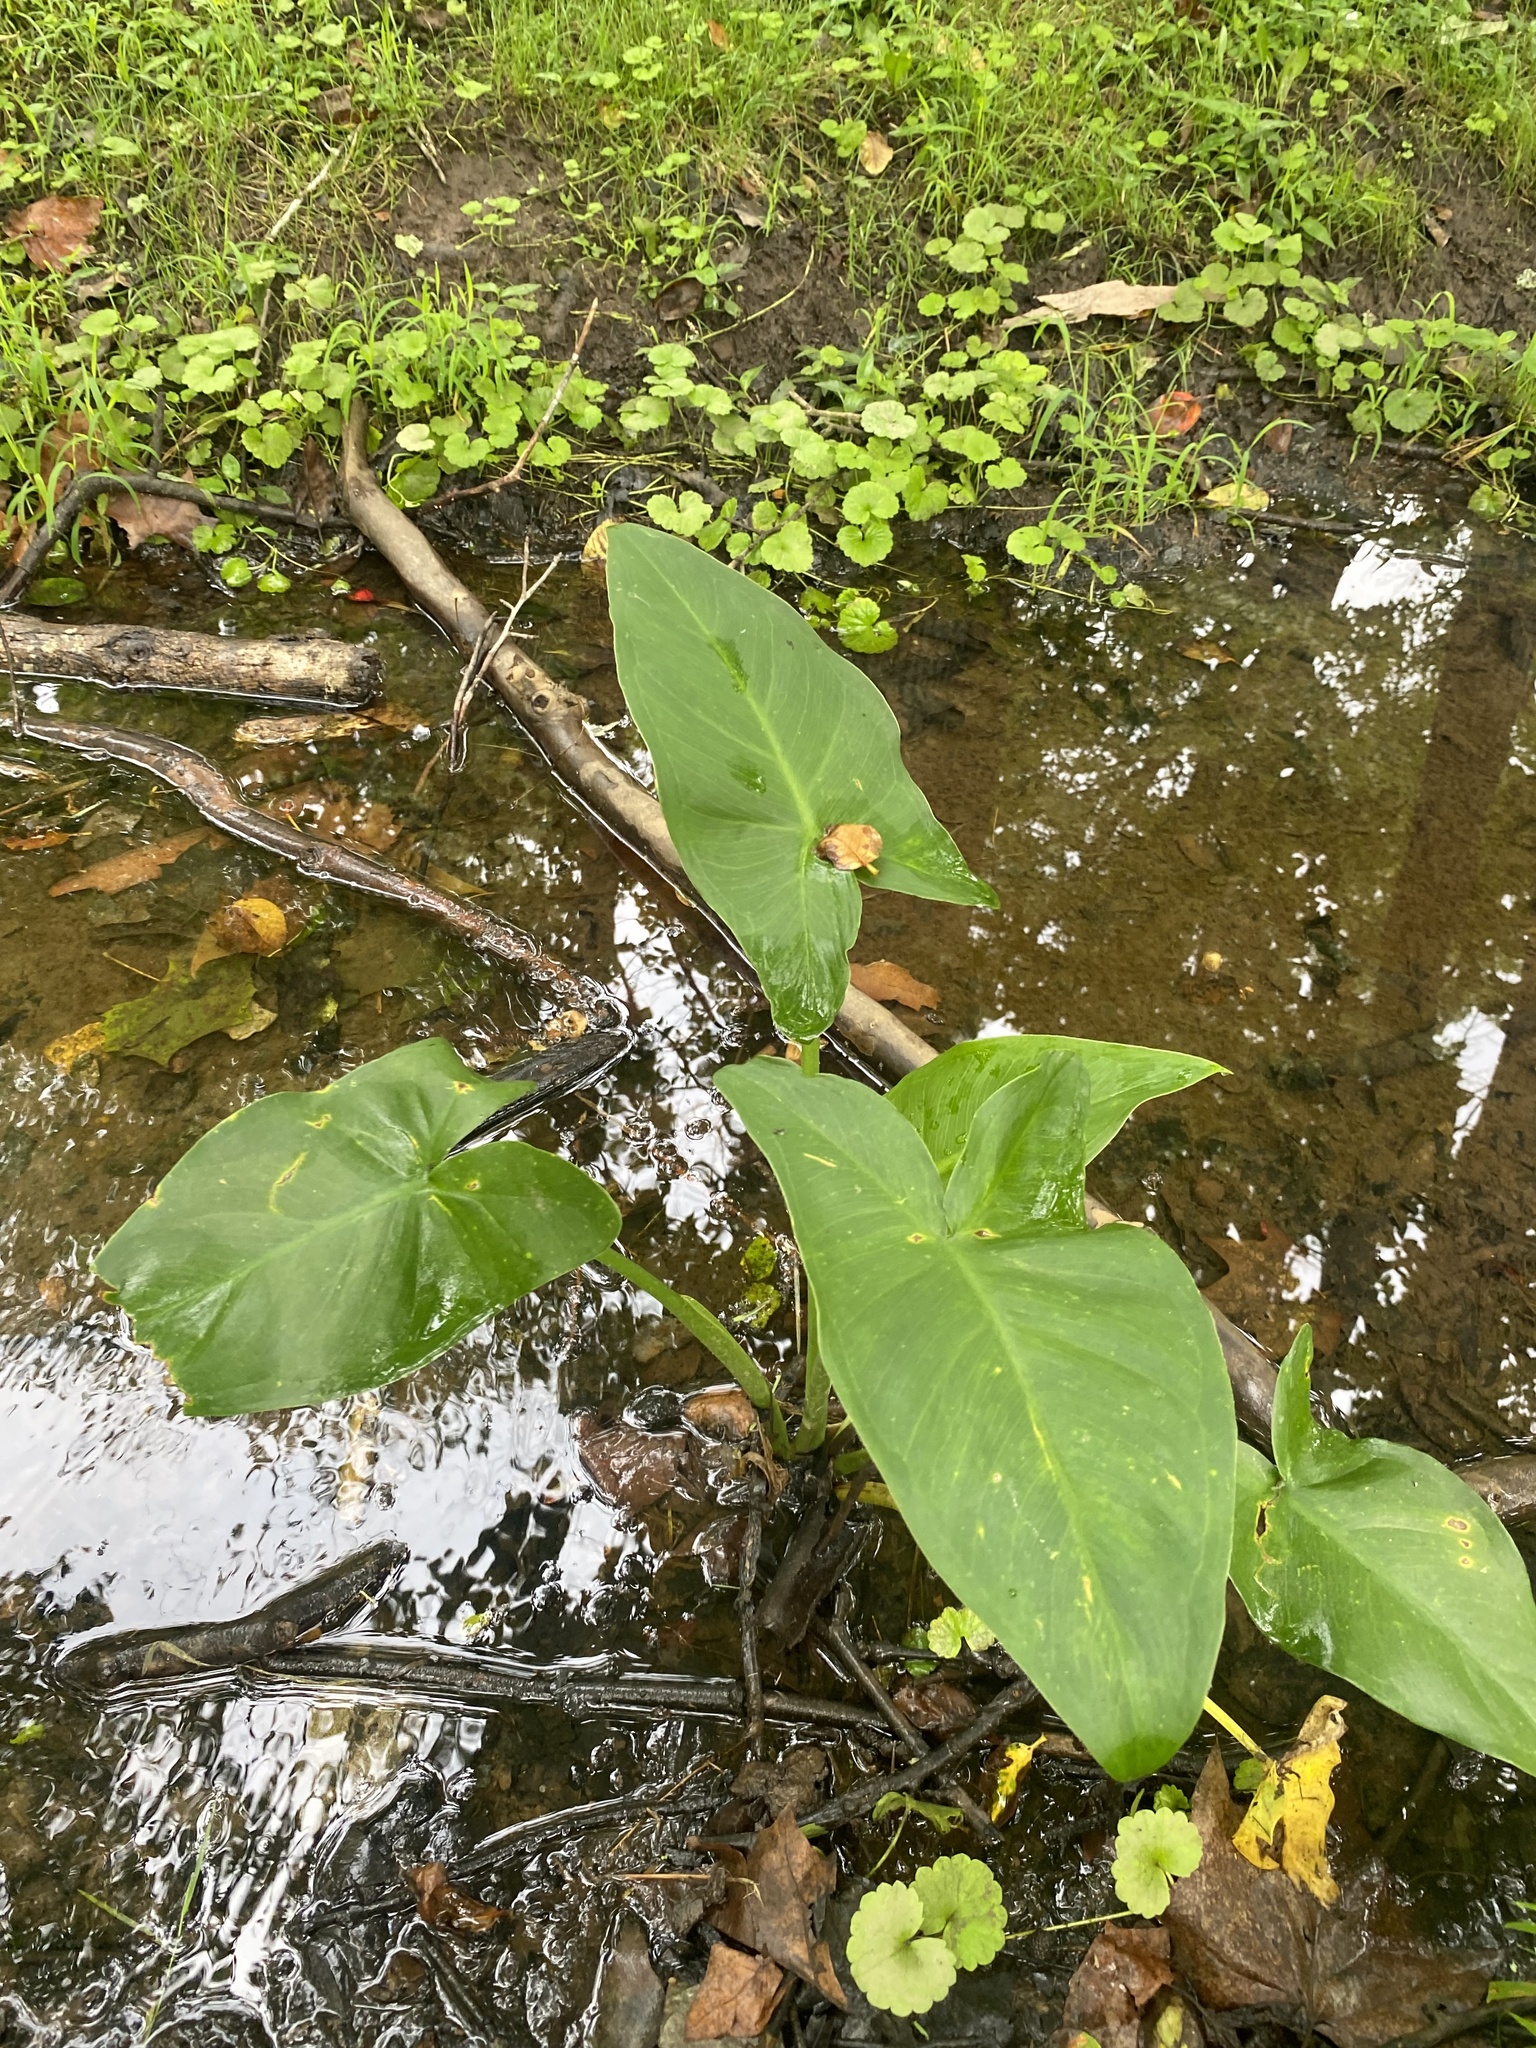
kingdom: Plantae
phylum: Tracheophyta
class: Liliopsida
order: Alismatales
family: Araceae
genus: Peltandra
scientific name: Peltandra virginica
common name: Arrow arum
